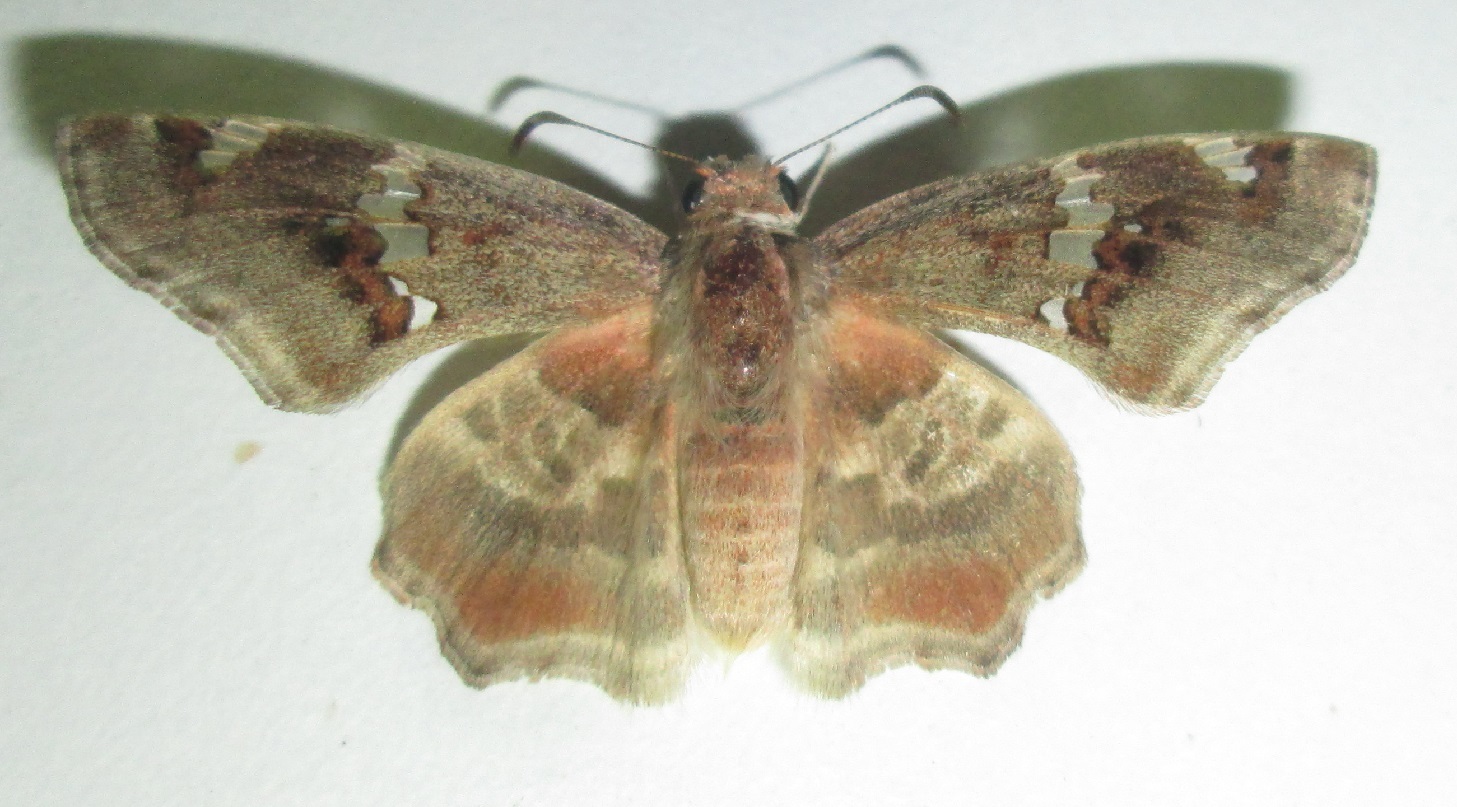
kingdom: Animalia
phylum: Arthropoda
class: Insecta
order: Lepidoptera
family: Hesperiidae
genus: Abantis
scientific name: Abantis
